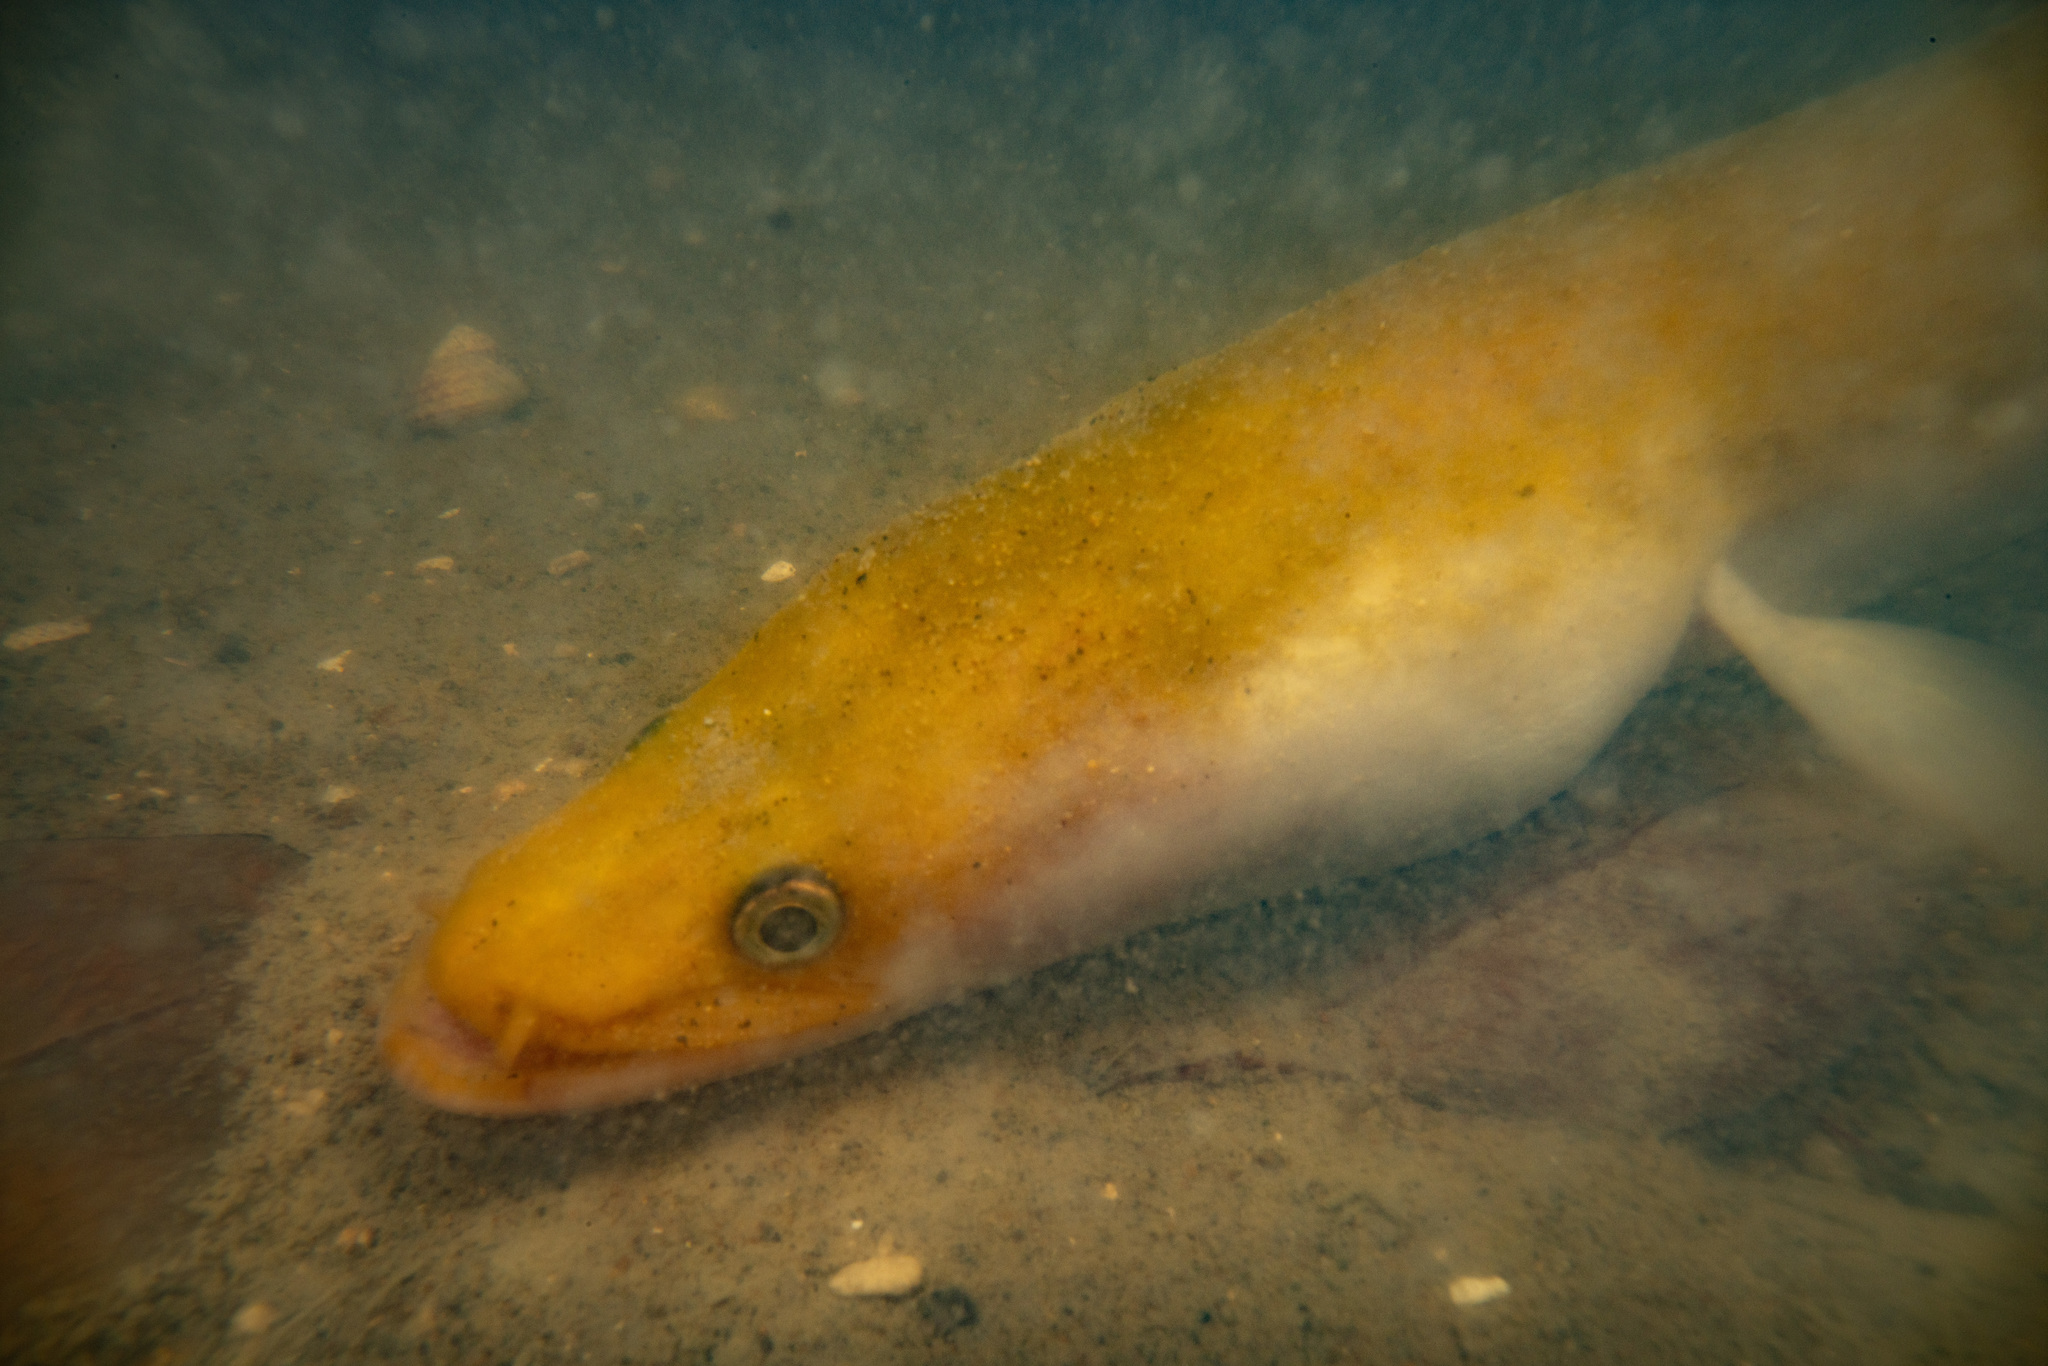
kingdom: Animalia
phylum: Chordata
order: Anguilliformes
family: Anguillidae
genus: Anguilla
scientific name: Anguilla australis
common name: Shortfin eel
